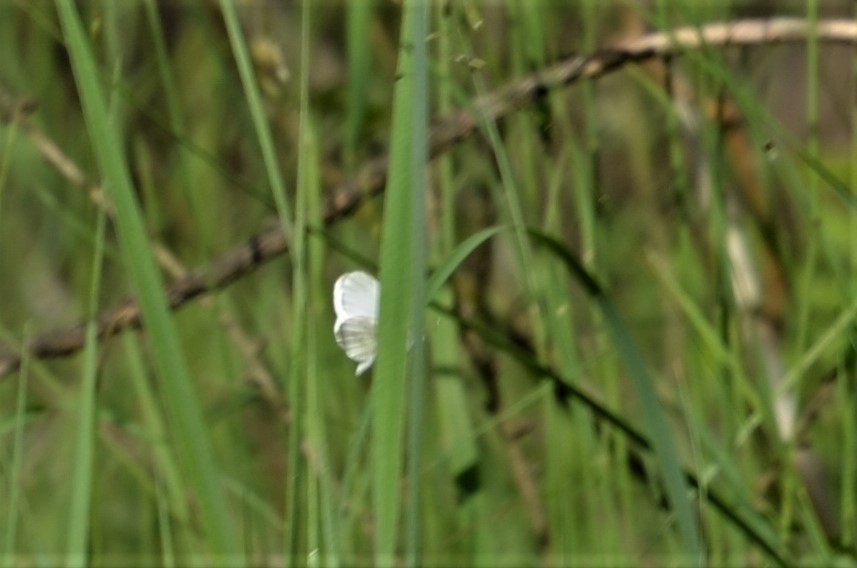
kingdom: Animalia
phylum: Arthropoda
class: Insecta
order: Lepidoptera
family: Pieridae
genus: Leptidea
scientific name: Leptidea
